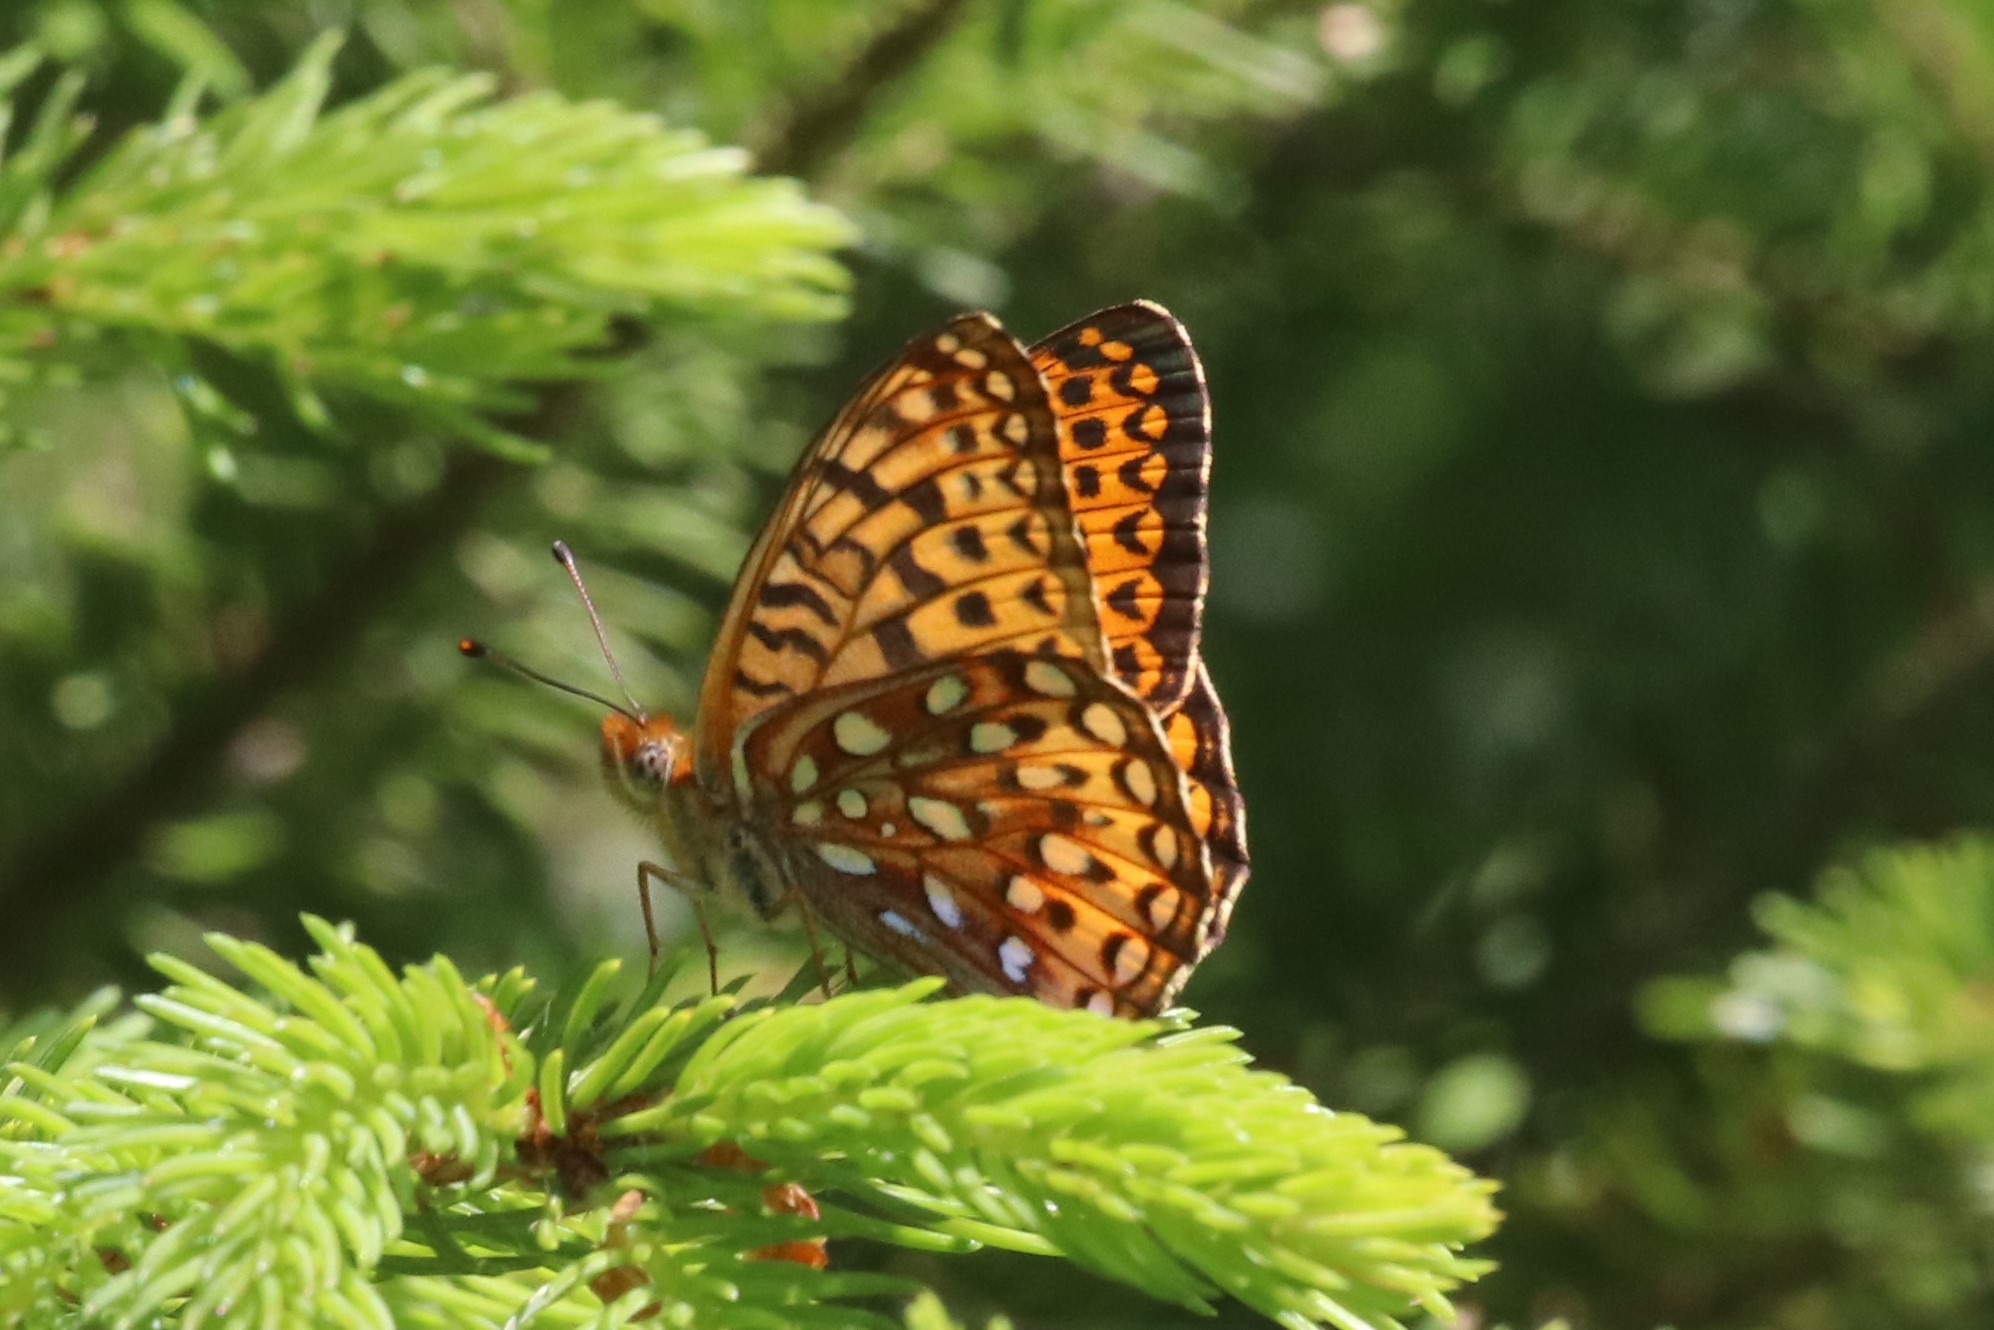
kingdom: Animalia
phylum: Arthropoda
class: Insecta
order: Lepidoptera
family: Nymphalidae
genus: Speyeria
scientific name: Speyeria atlantis
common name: Atlantis fritillary
